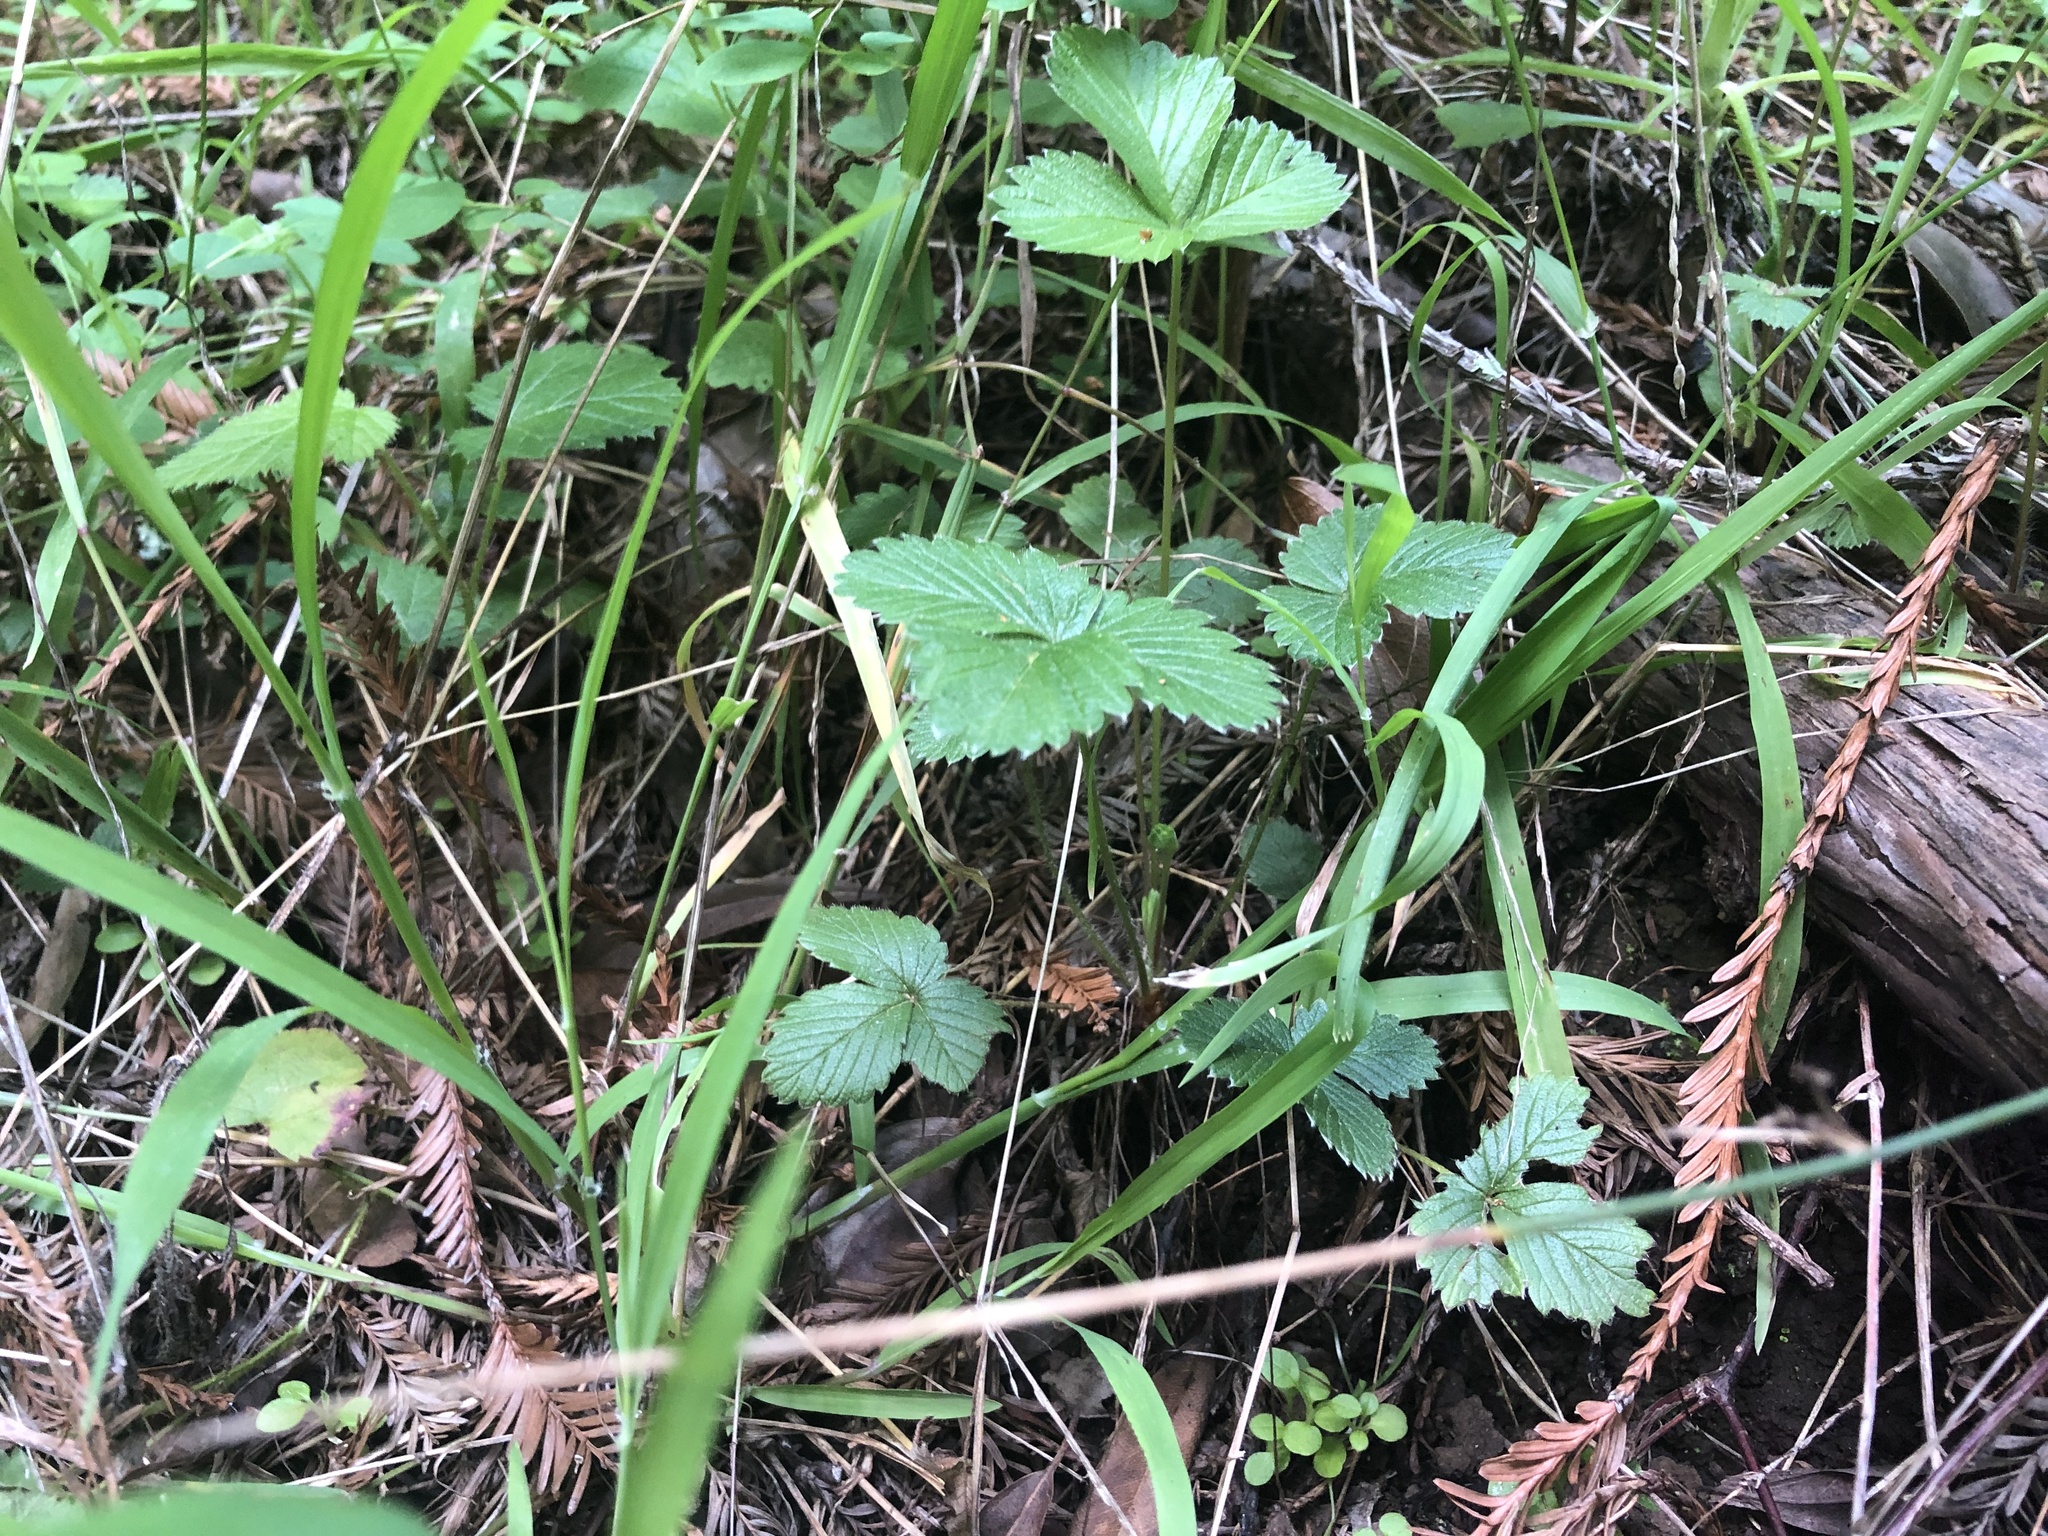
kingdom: Plantae
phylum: Tracheophyta
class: Magnoliopsida
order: Rosales
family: Rosaceae
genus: Fragaria
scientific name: Fragaria vesca
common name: Wild strawberry
